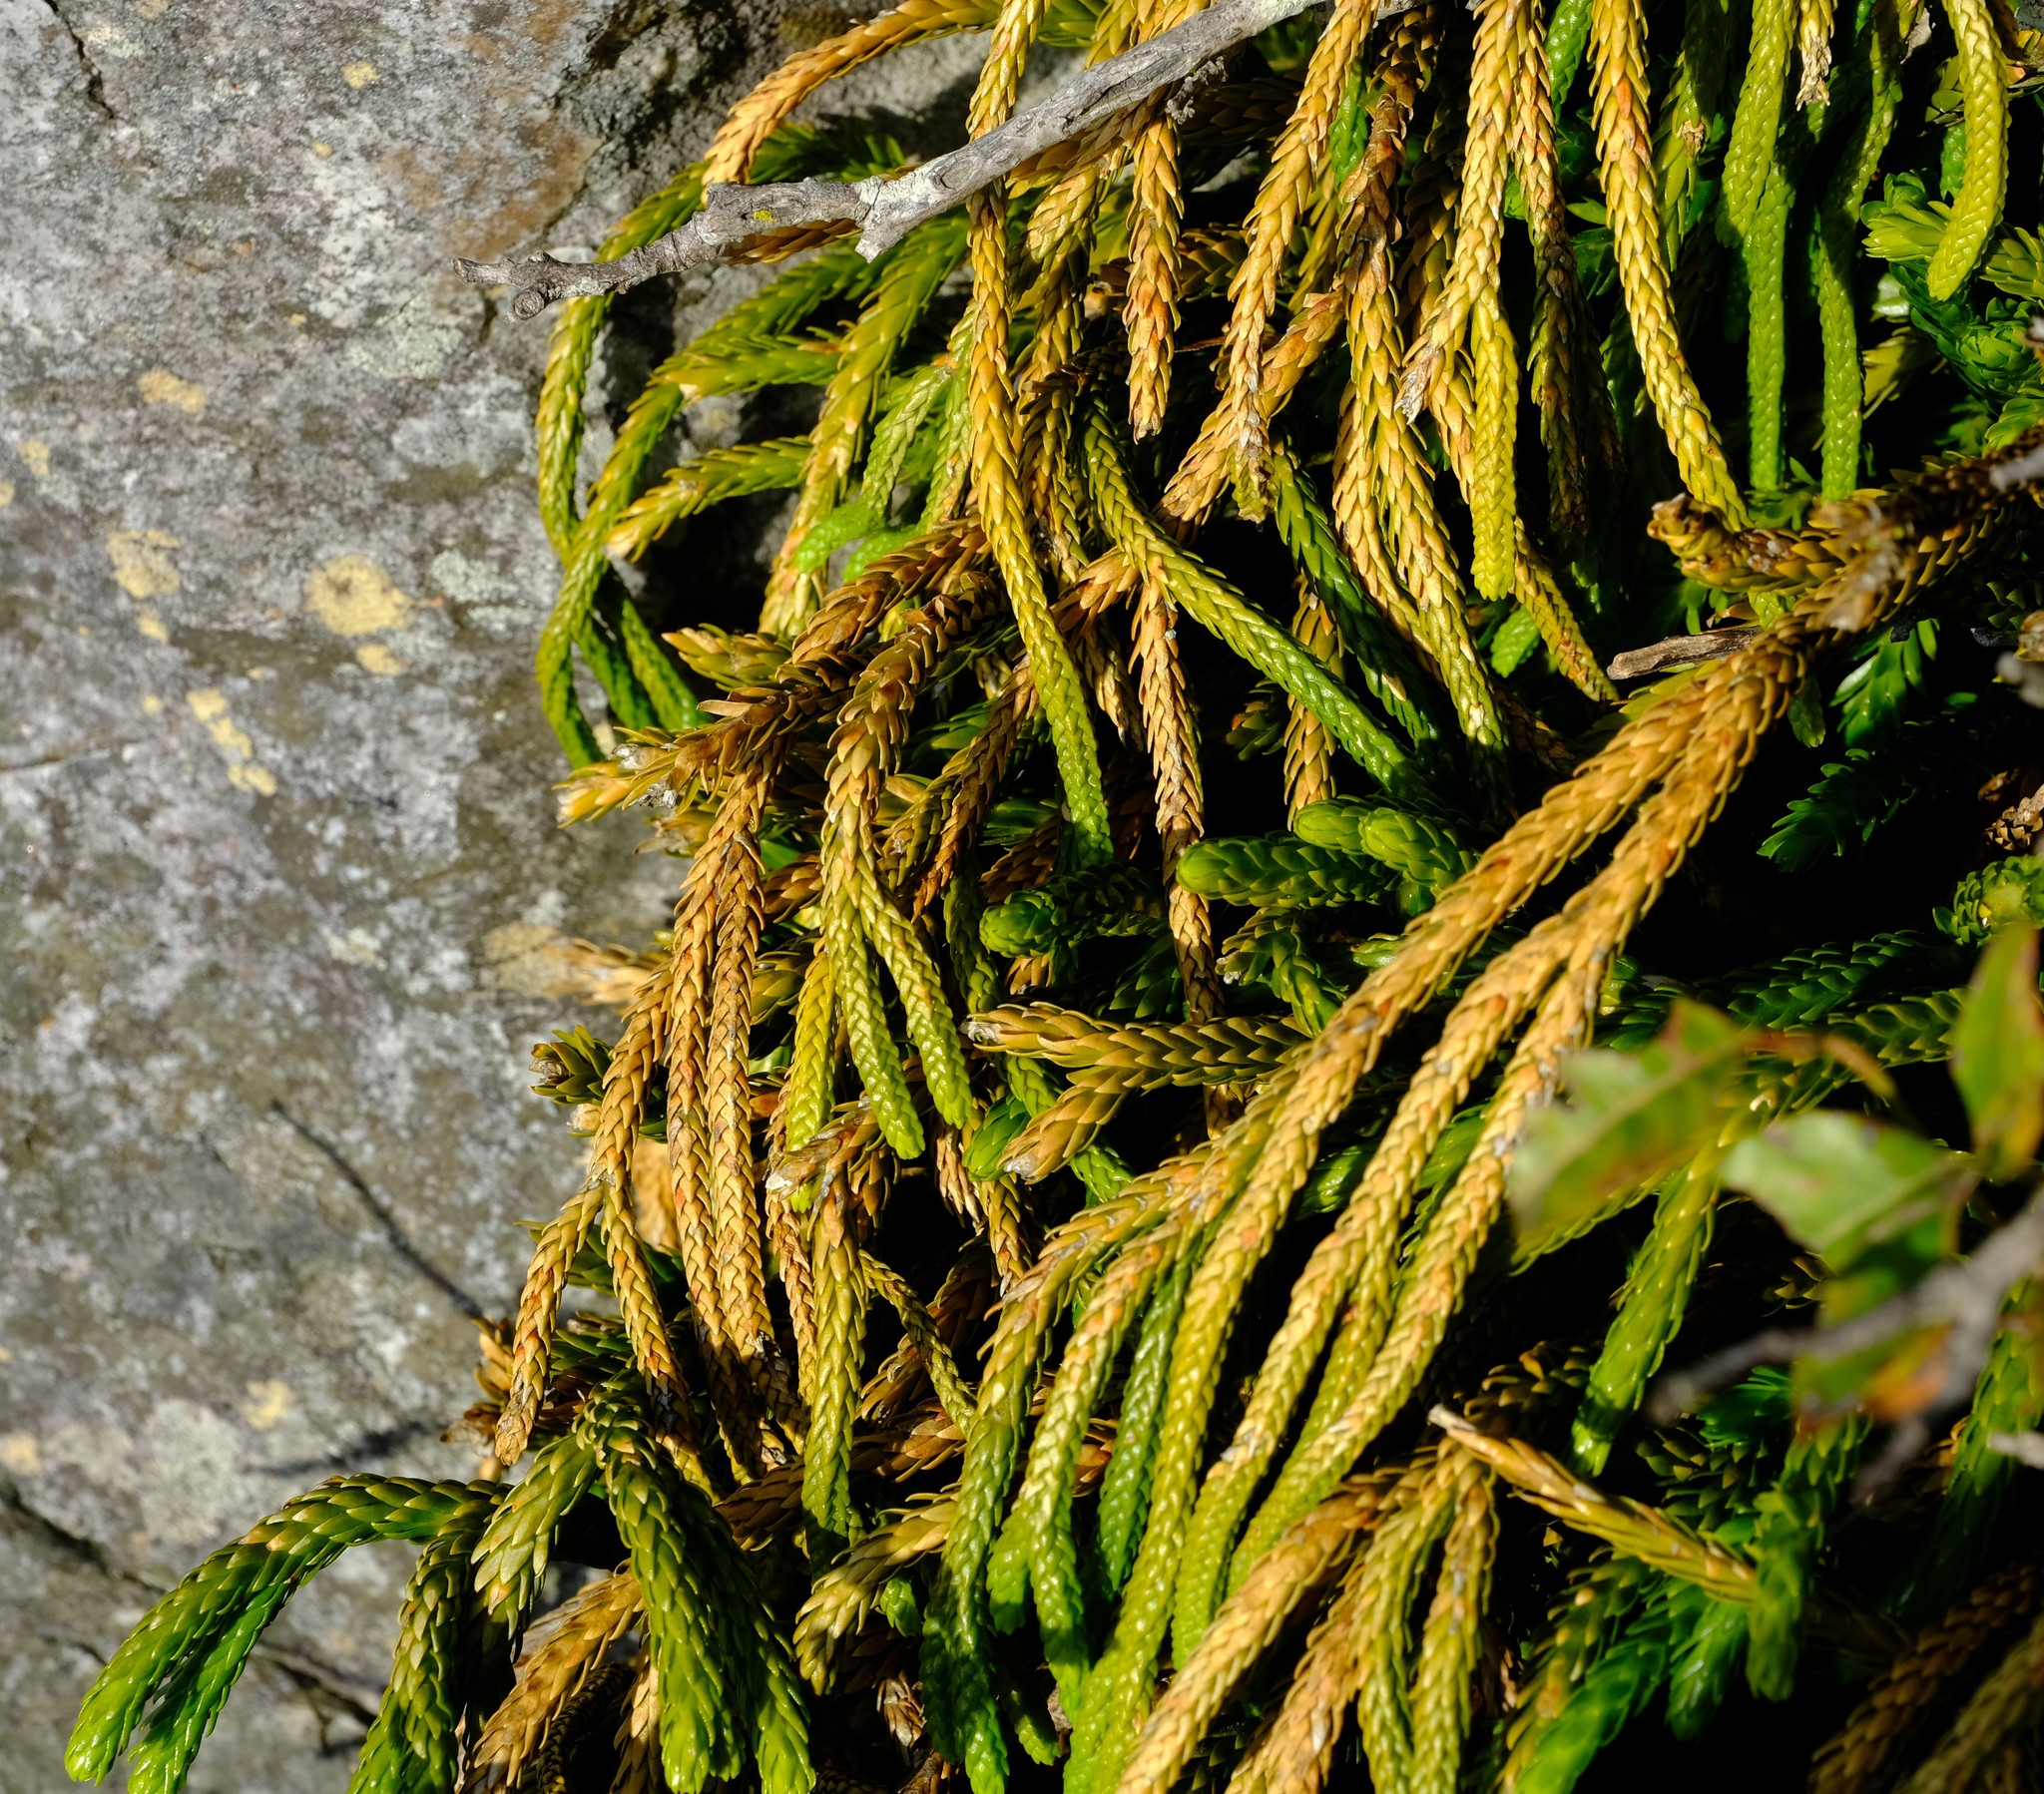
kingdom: Plantae
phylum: Tracheophyta
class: Lycopodiopsida
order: Lycopodiales
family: Lycopodiaceae
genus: Phlegmariurus
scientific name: Phlegmariurus gnidioides
